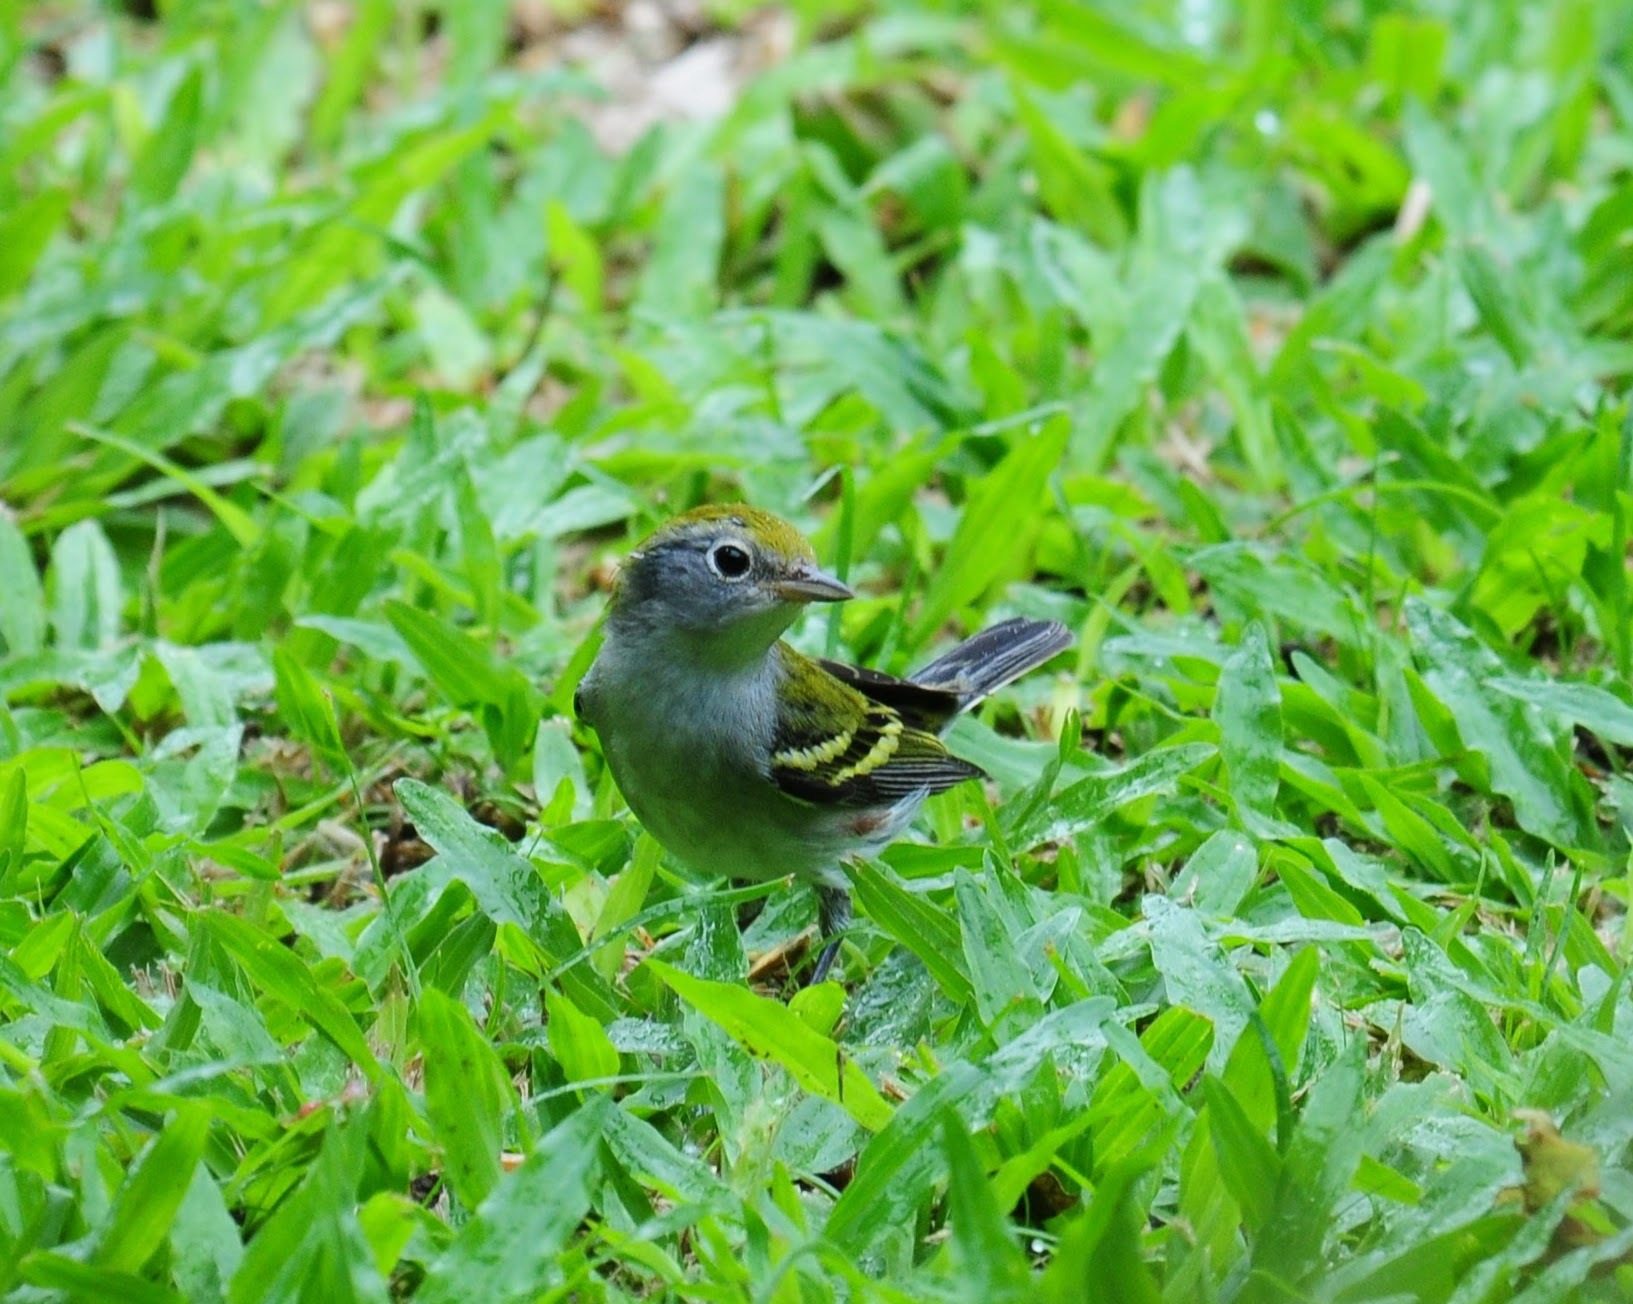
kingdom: Animalia
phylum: Chordata
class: Aves
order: Passeriformes
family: Parulidae
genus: Setophaga
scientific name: Setophaga pensylvanica
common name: Chestnut-sided warbler
